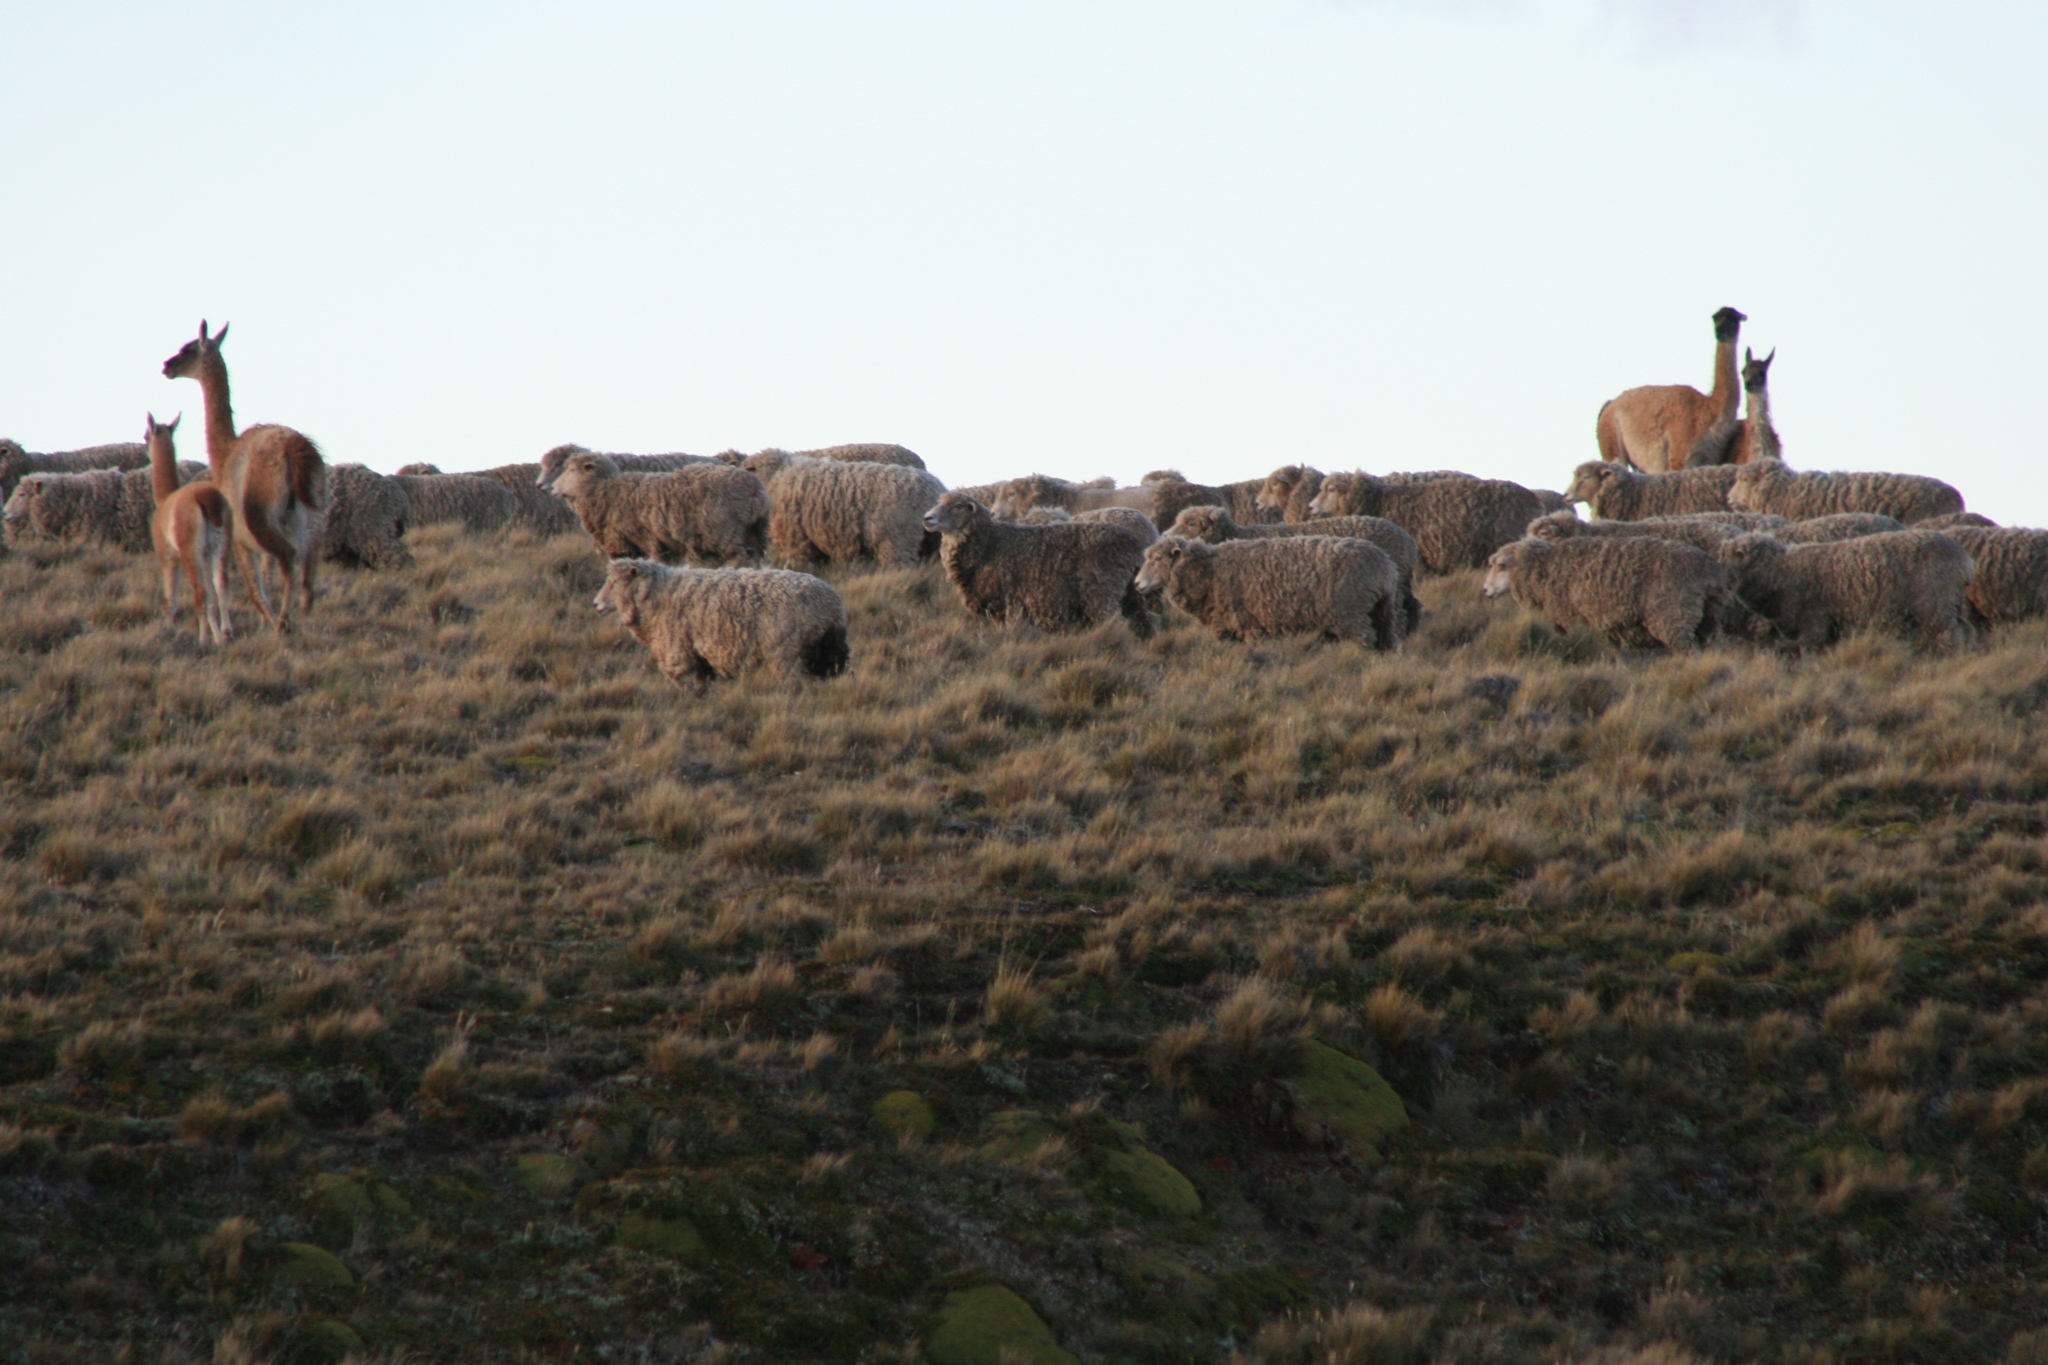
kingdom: Animalia
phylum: Chordata
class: Mammalia
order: Artiodactyla
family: Camelidae
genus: Lama
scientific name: Lama glama
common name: Llama
